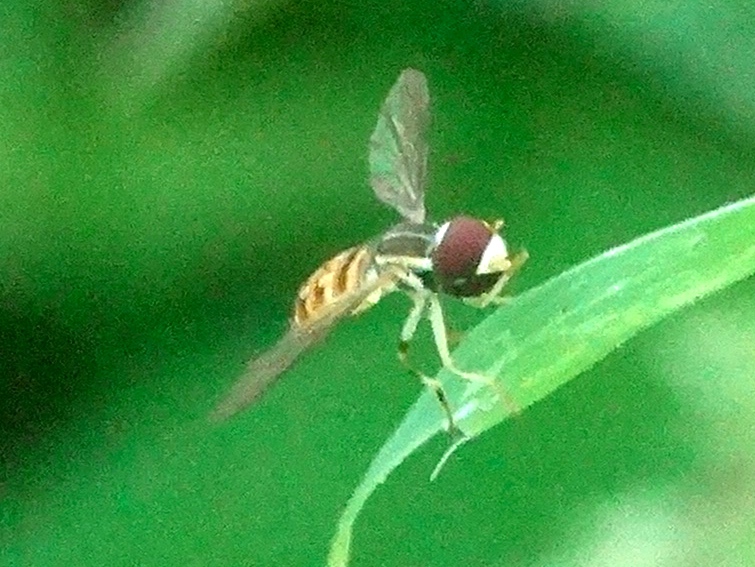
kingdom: Animalia
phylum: Arthropoda
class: Insecta
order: Diptera
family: Syrphidae
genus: Toxomerus
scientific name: Toxomerus
